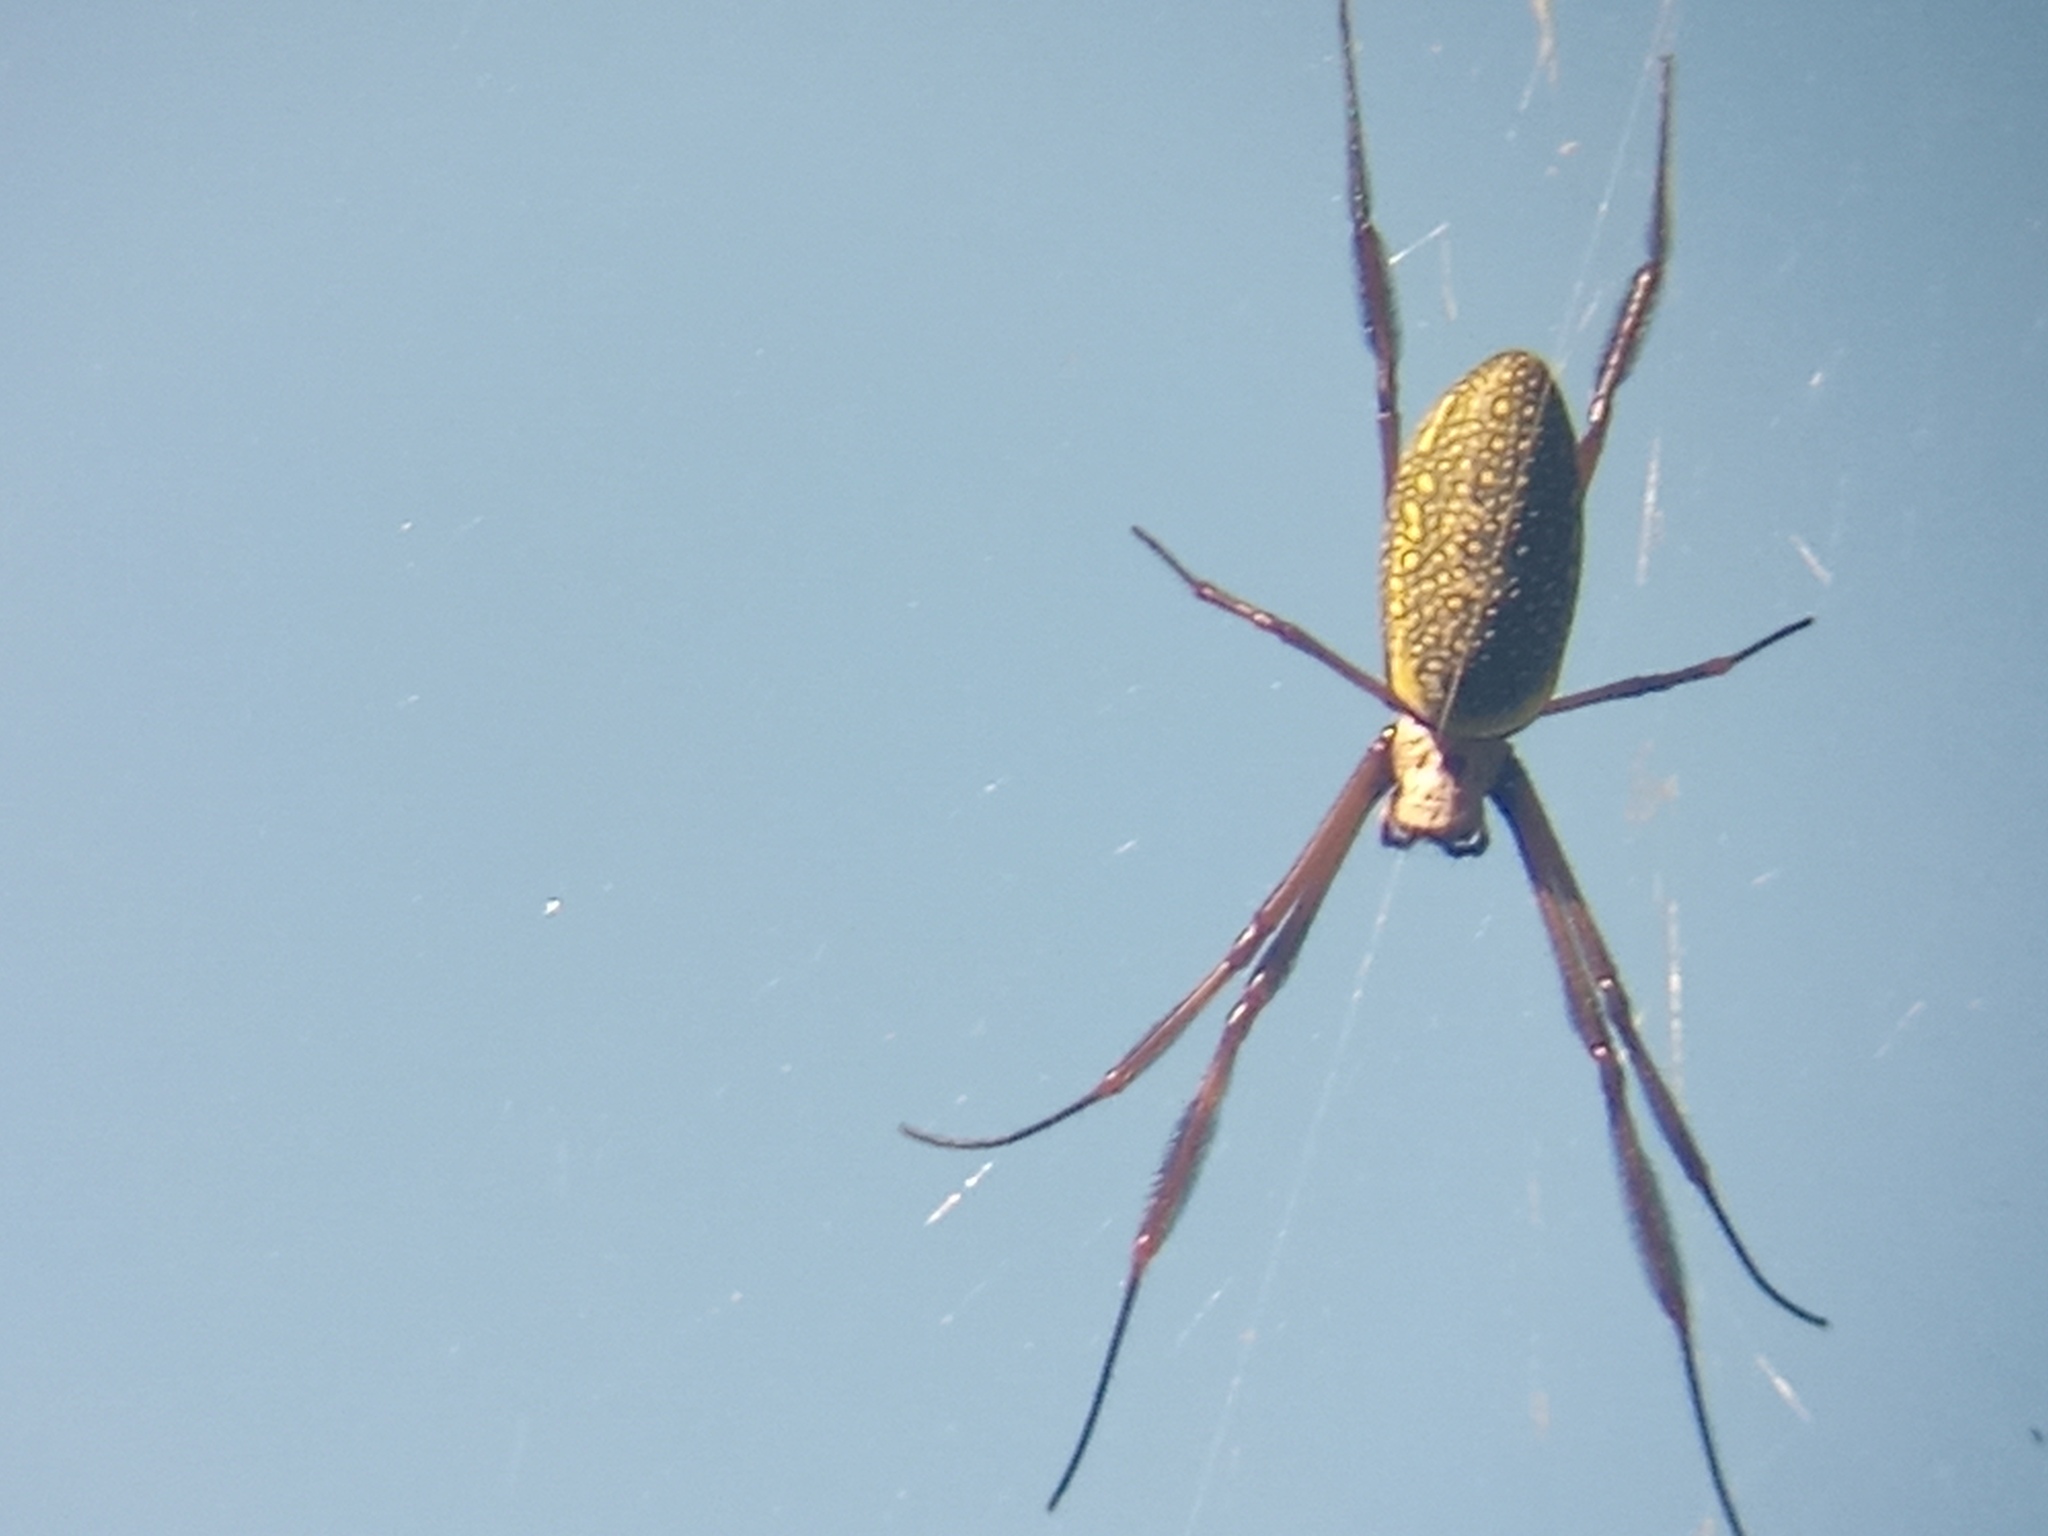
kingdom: Animalia
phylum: Arthropoda
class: Arachnida
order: Araneae
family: Araneidae
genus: Trichonephila
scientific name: Trichonephila clavipes
